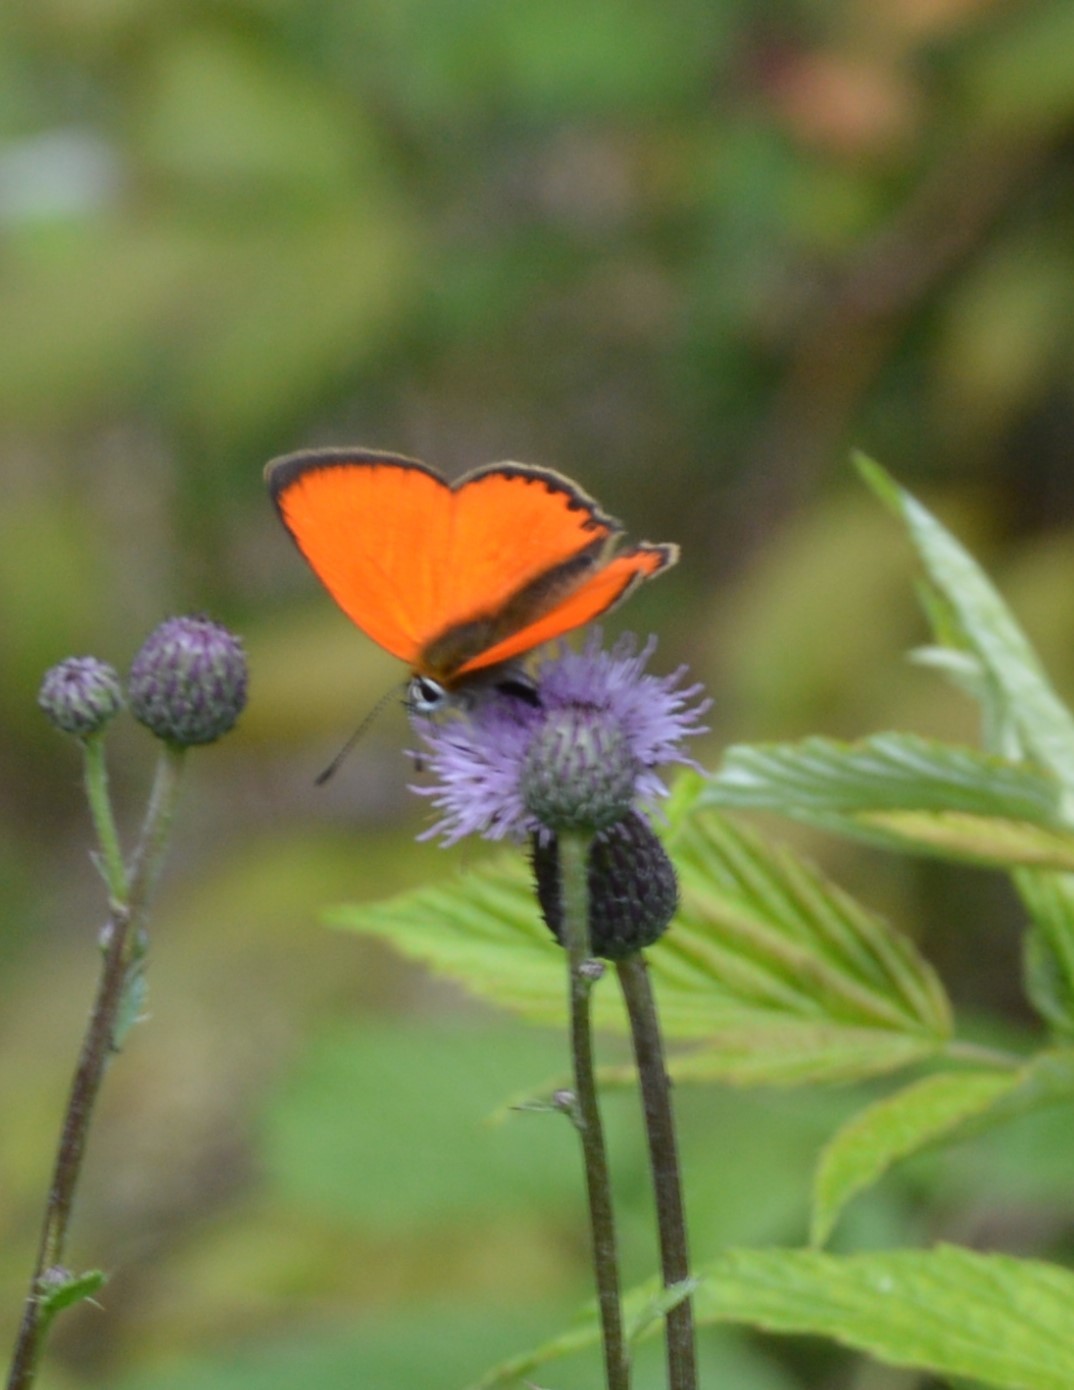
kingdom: Animalia
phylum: Arthropoda
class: Insecta
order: Lepidoptera
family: Lycaenidae
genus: Lycaena
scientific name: Lycaena virgaureae
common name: Scarce copper
